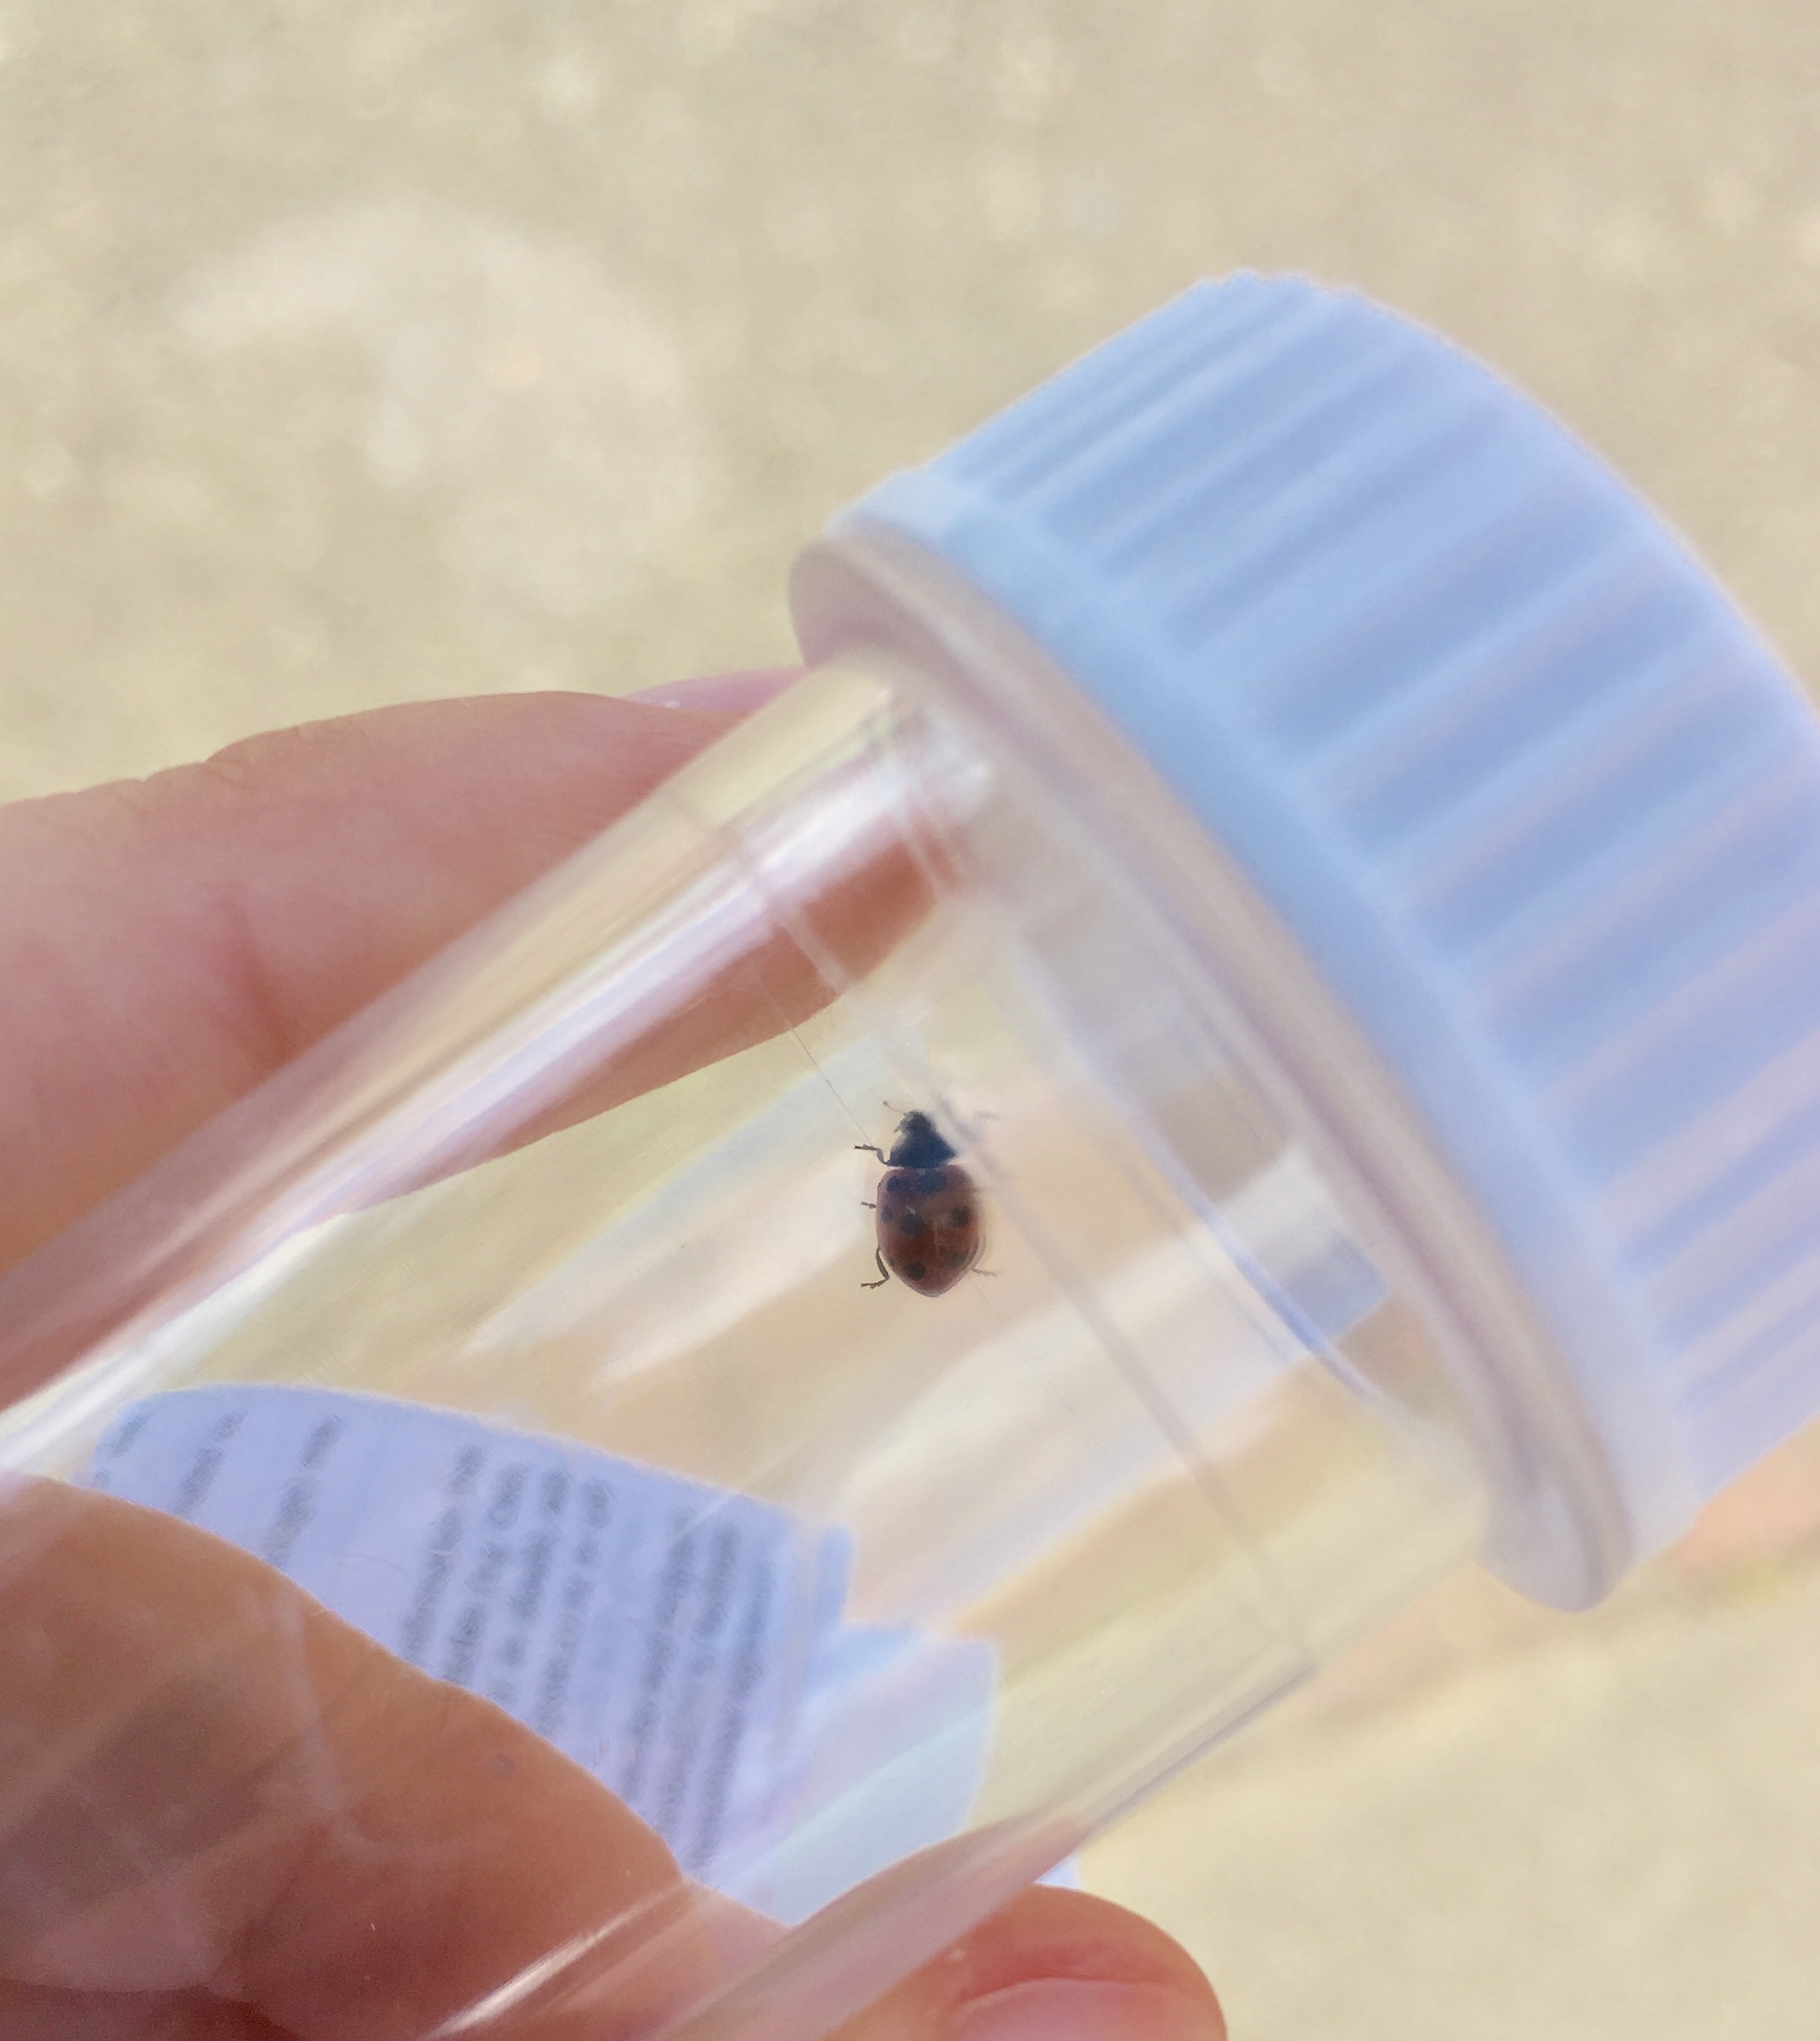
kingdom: Animalia
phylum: Arthropoda
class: Insecta
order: Coleoptera
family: Coccinellidae
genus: Coccinella
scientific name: Coccinella undecimpunctata
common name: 11-spot ladybird
